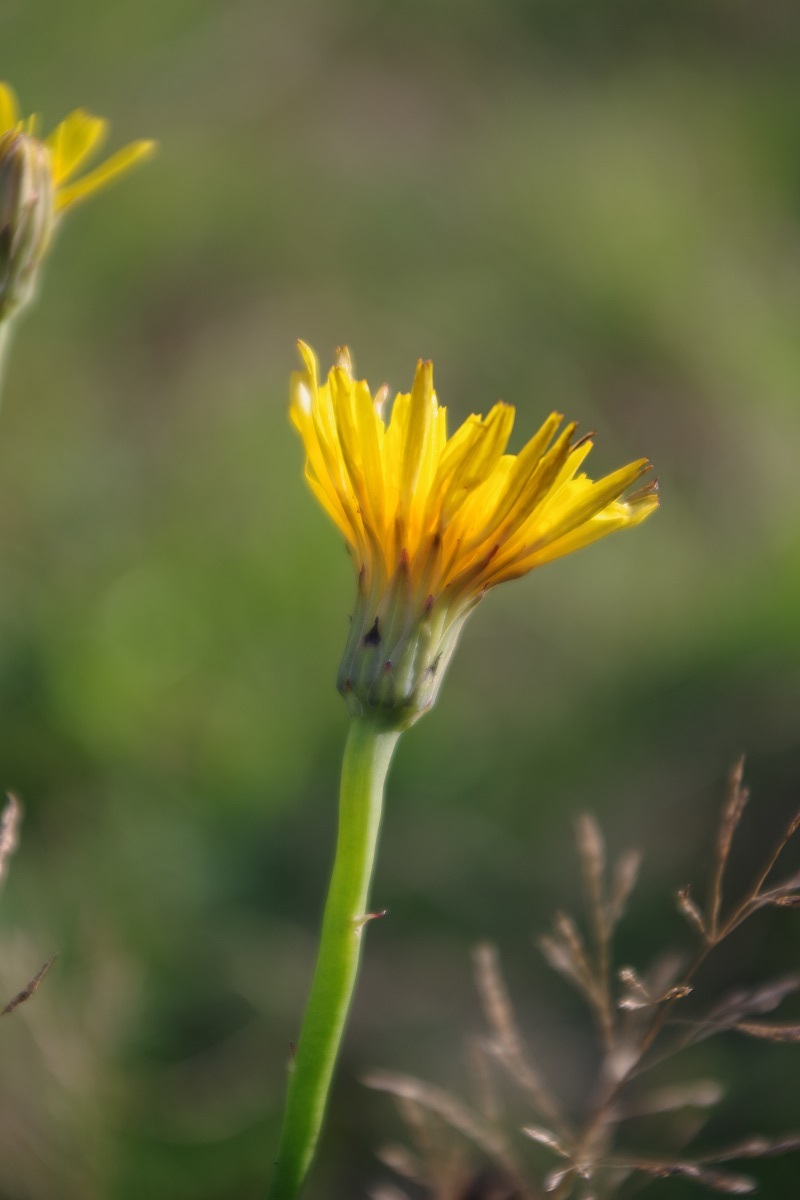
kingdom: Plantae
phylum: Tracheophyta
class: Magnoliopsida
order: Asterales
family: Asteraceae
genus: Hypochaeris
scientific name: Hypochaeris radicata
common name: Flatweed
